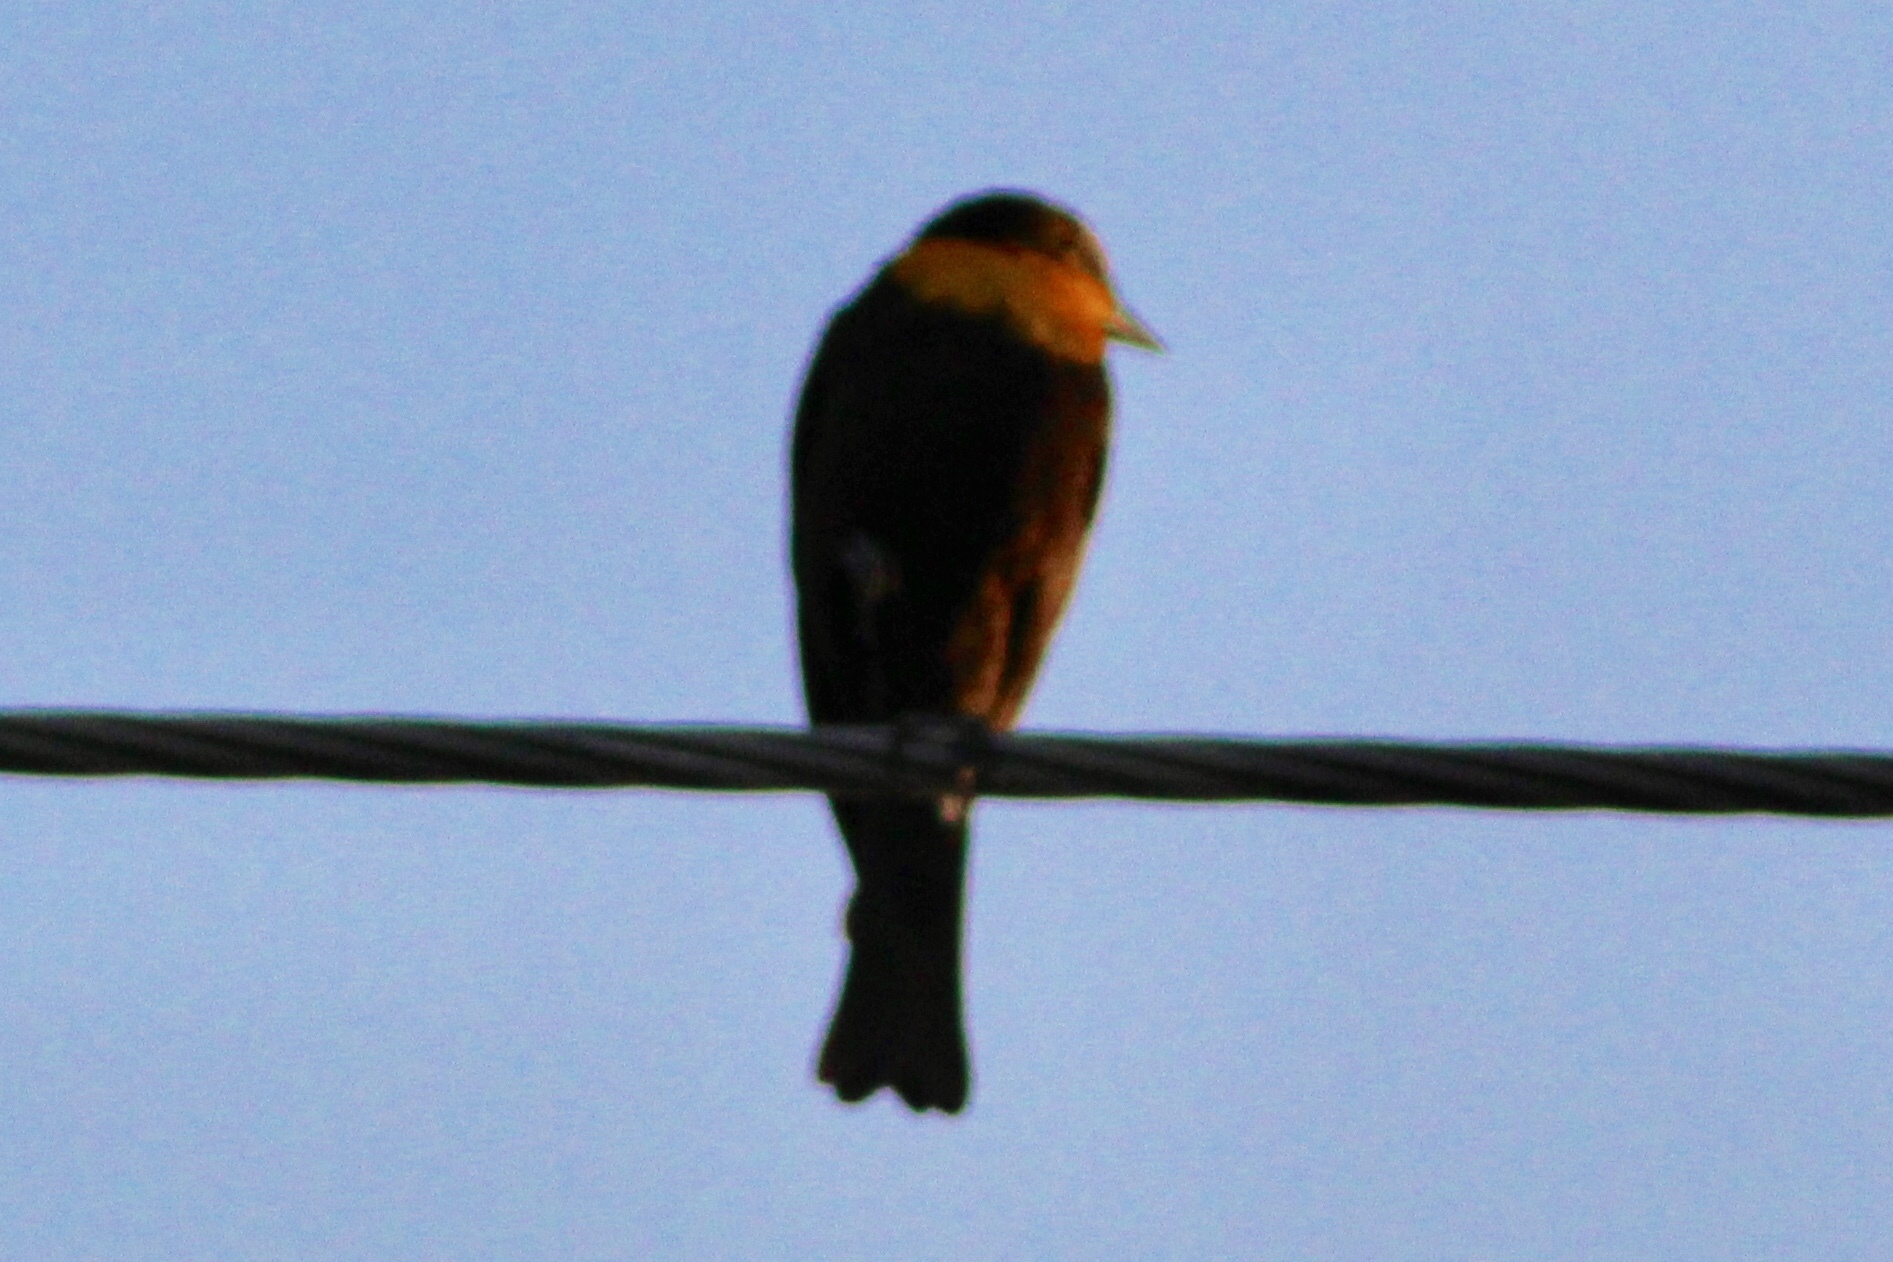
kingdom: Animalia
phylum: Chordata
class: Aves
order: Passeriformes
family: Icteridae
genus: Xanthocephalus
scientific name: Xanthocephalus xanthocephalus
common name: Yellow-headed blackbird
